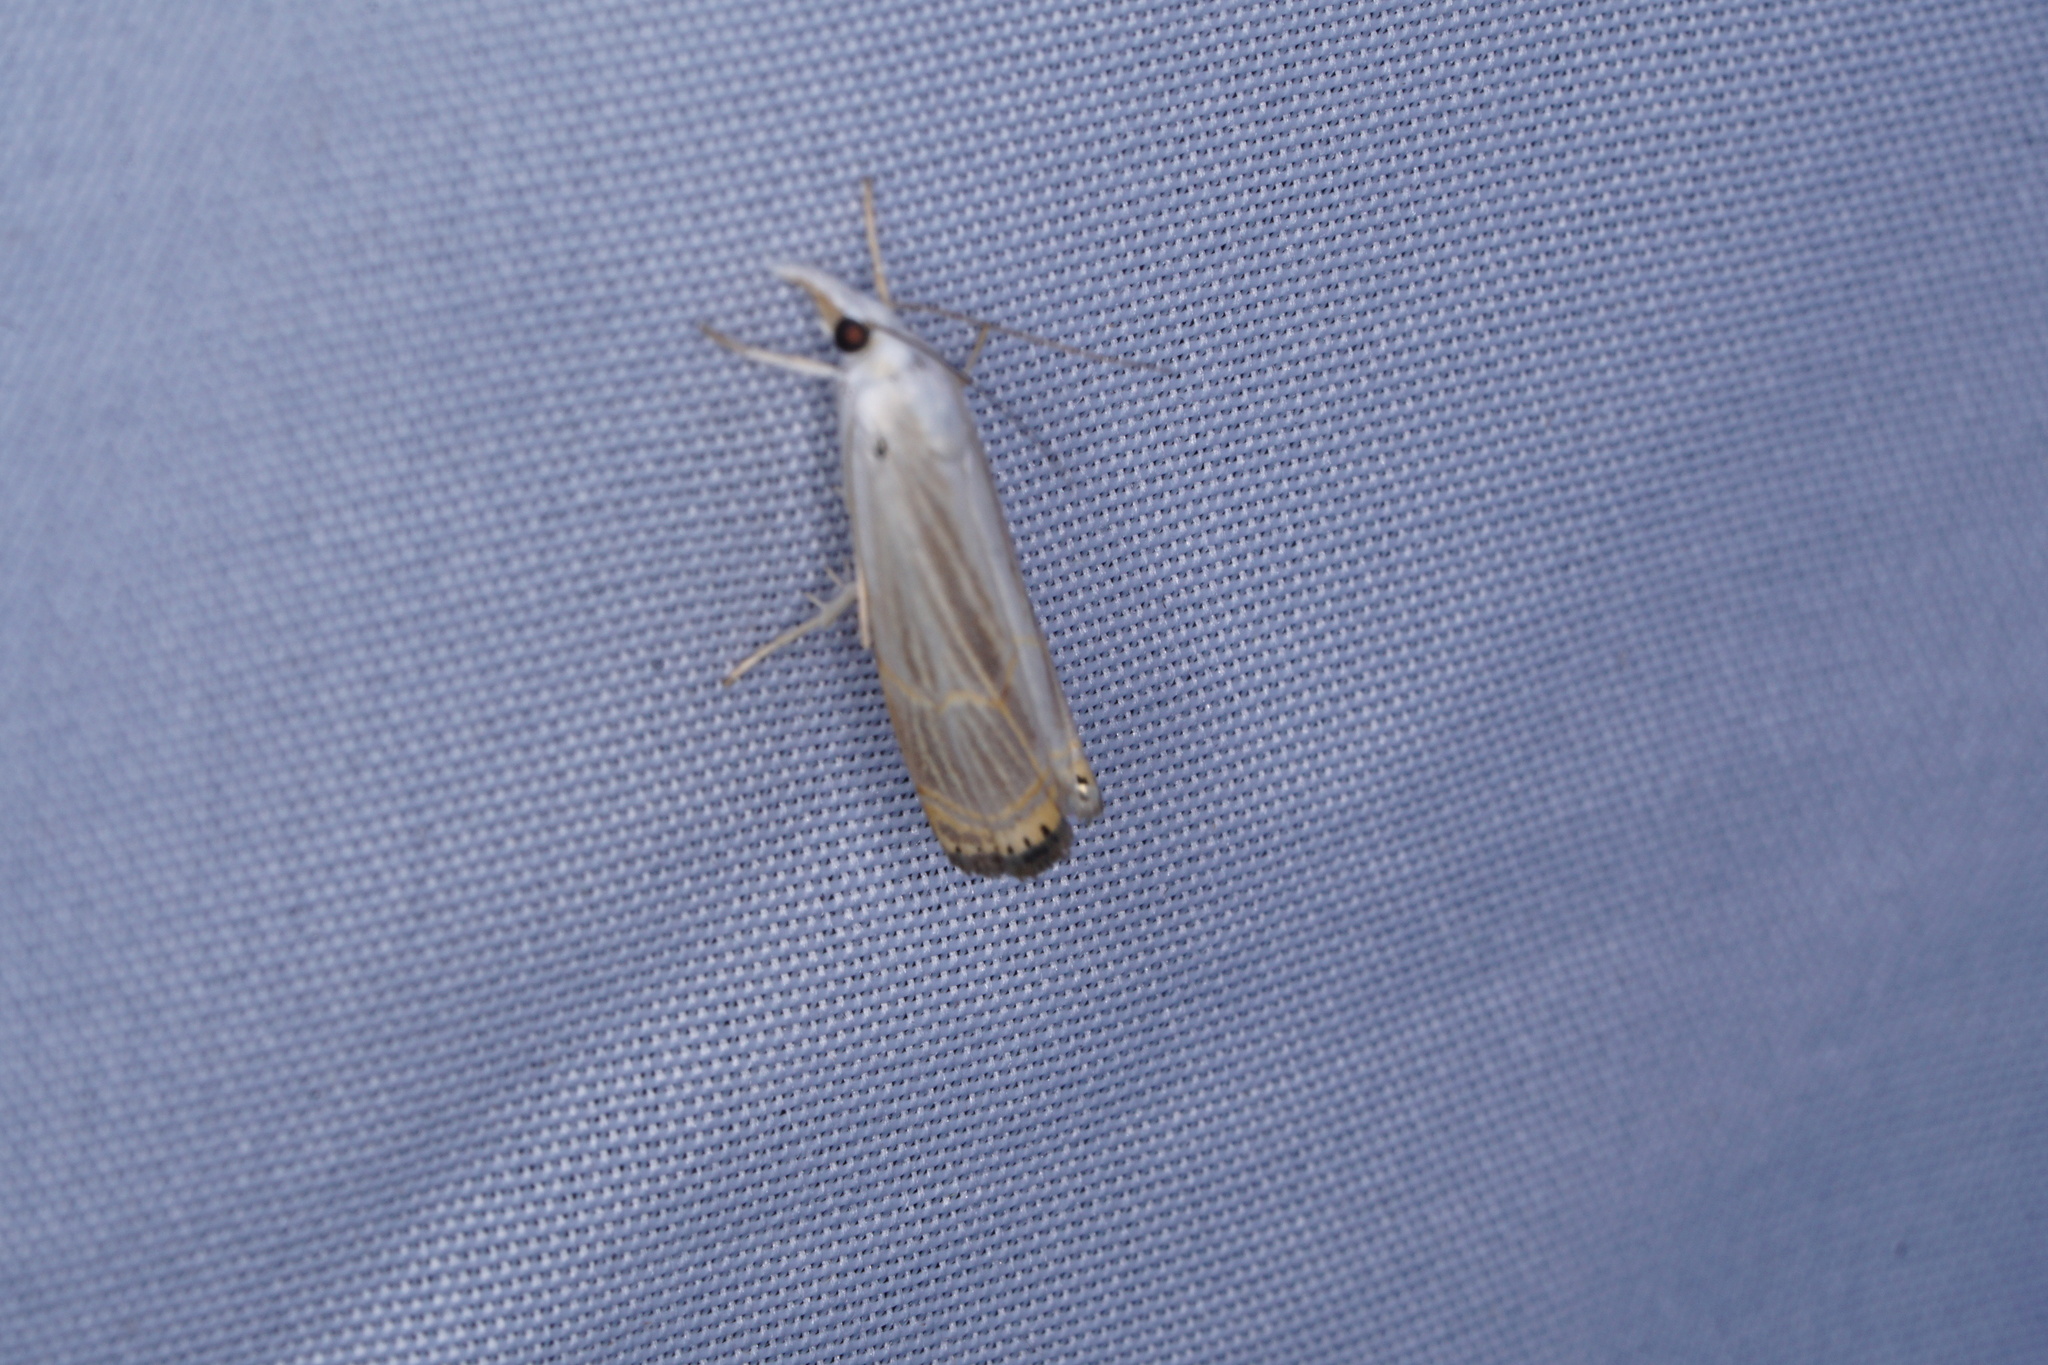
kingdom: Animalia
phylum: Arthropoda
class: Insecta
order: Lepidoptera
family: Crambidae
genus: Parapediasia
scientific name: Parapediasia decorellus
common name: Graceful grass-veneer
